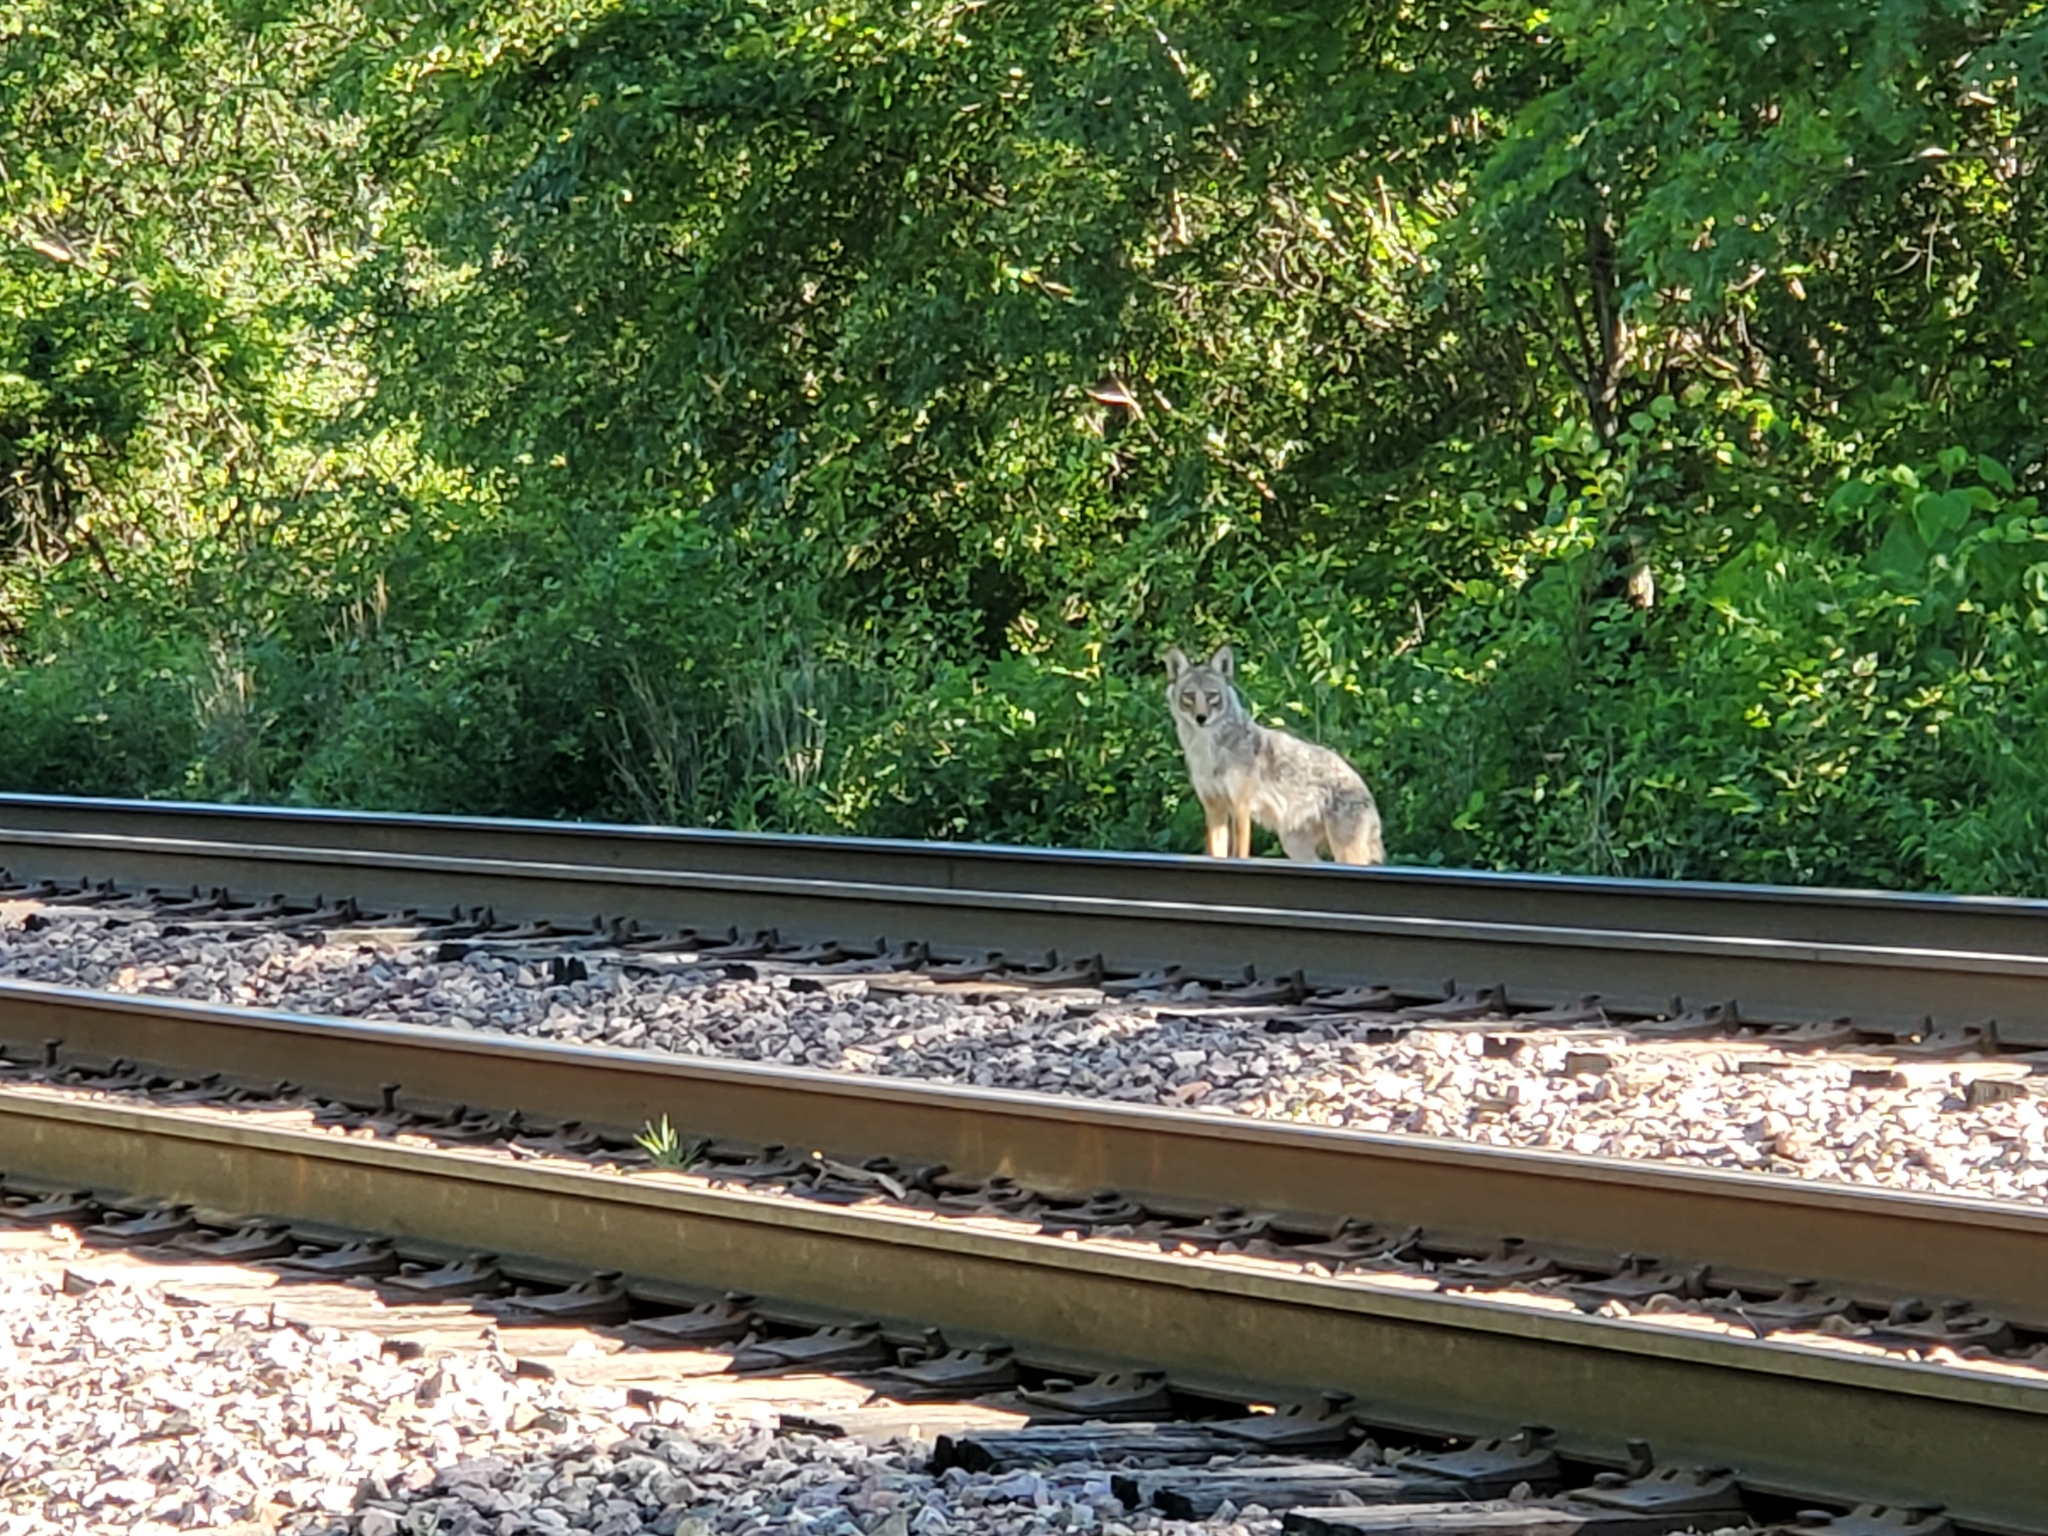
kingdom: Animalia
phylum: Chordata
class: Mammalia
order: Carnivora
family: Canidae
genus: Canis
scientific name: Canis latrans
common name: Coyote
